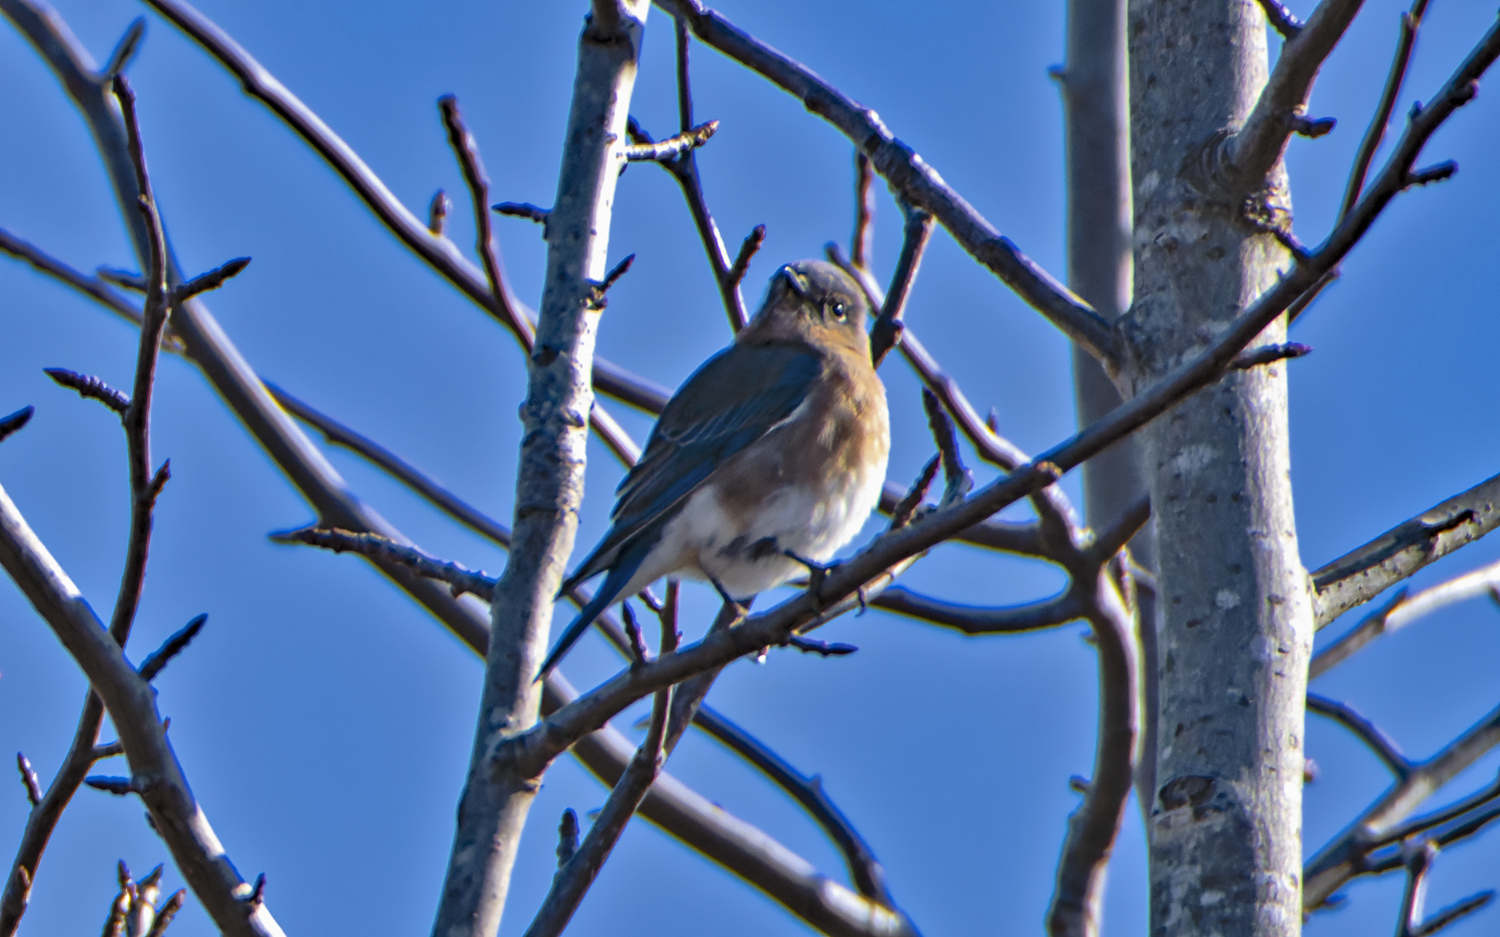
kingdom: Animalia
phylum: Chordata
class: Aves
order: Passeriformes
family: Turdidae
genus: Sialia
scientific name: Sialia sialis
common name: Eastern bluebird
